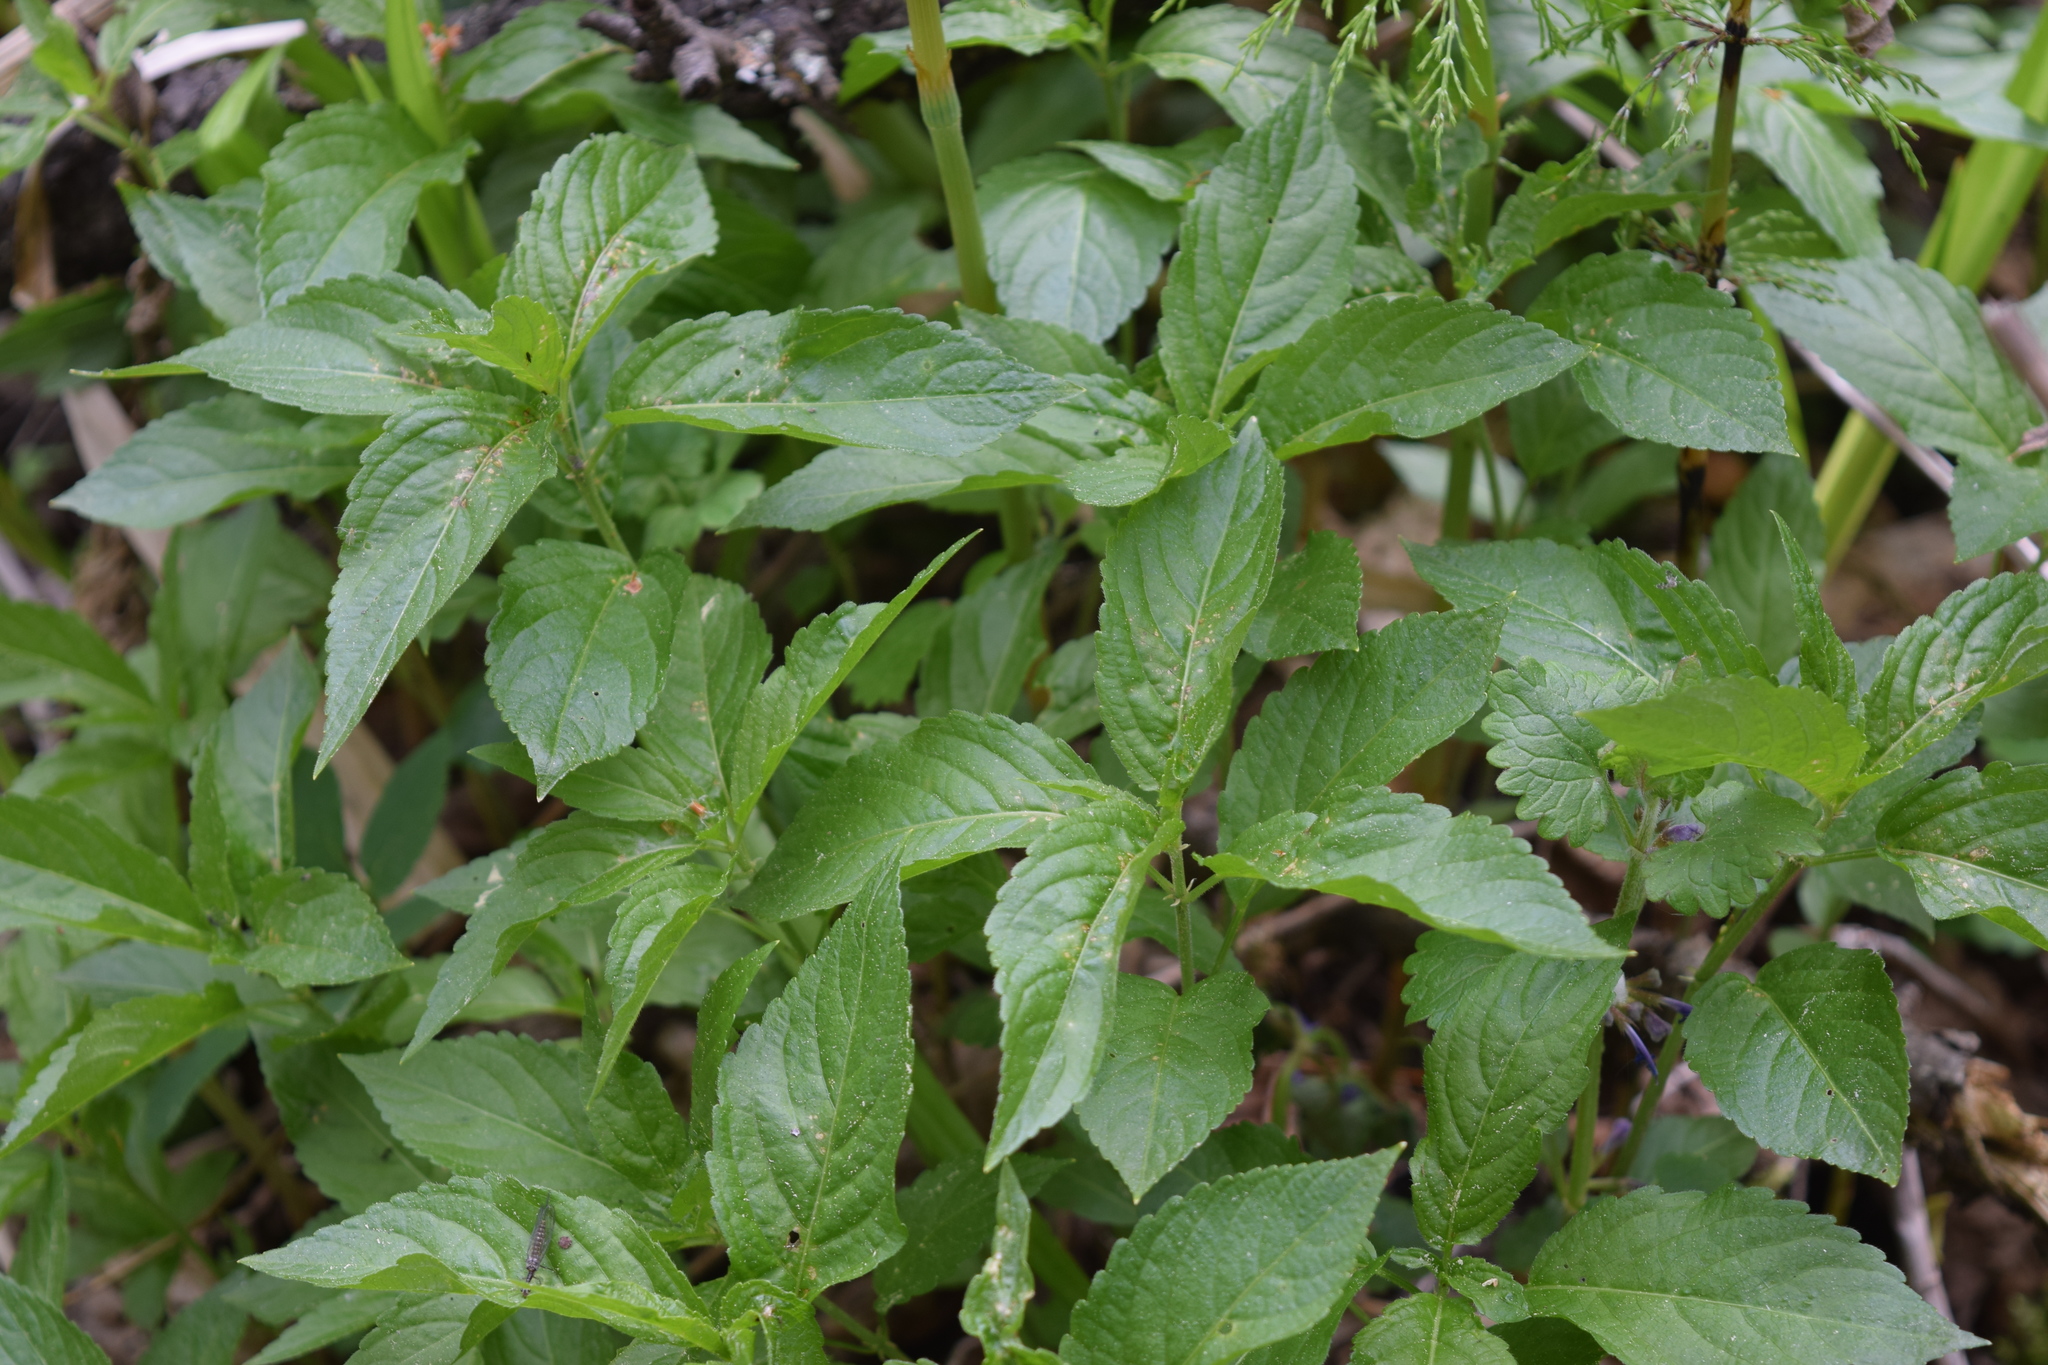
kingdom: Plantae
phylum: Tracheophyta
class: Magnoliopsida
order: Malpighiales
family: Euphorbiaceae
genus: Mercurialis
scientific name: Mercurialis perennis
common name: Dog mercury
